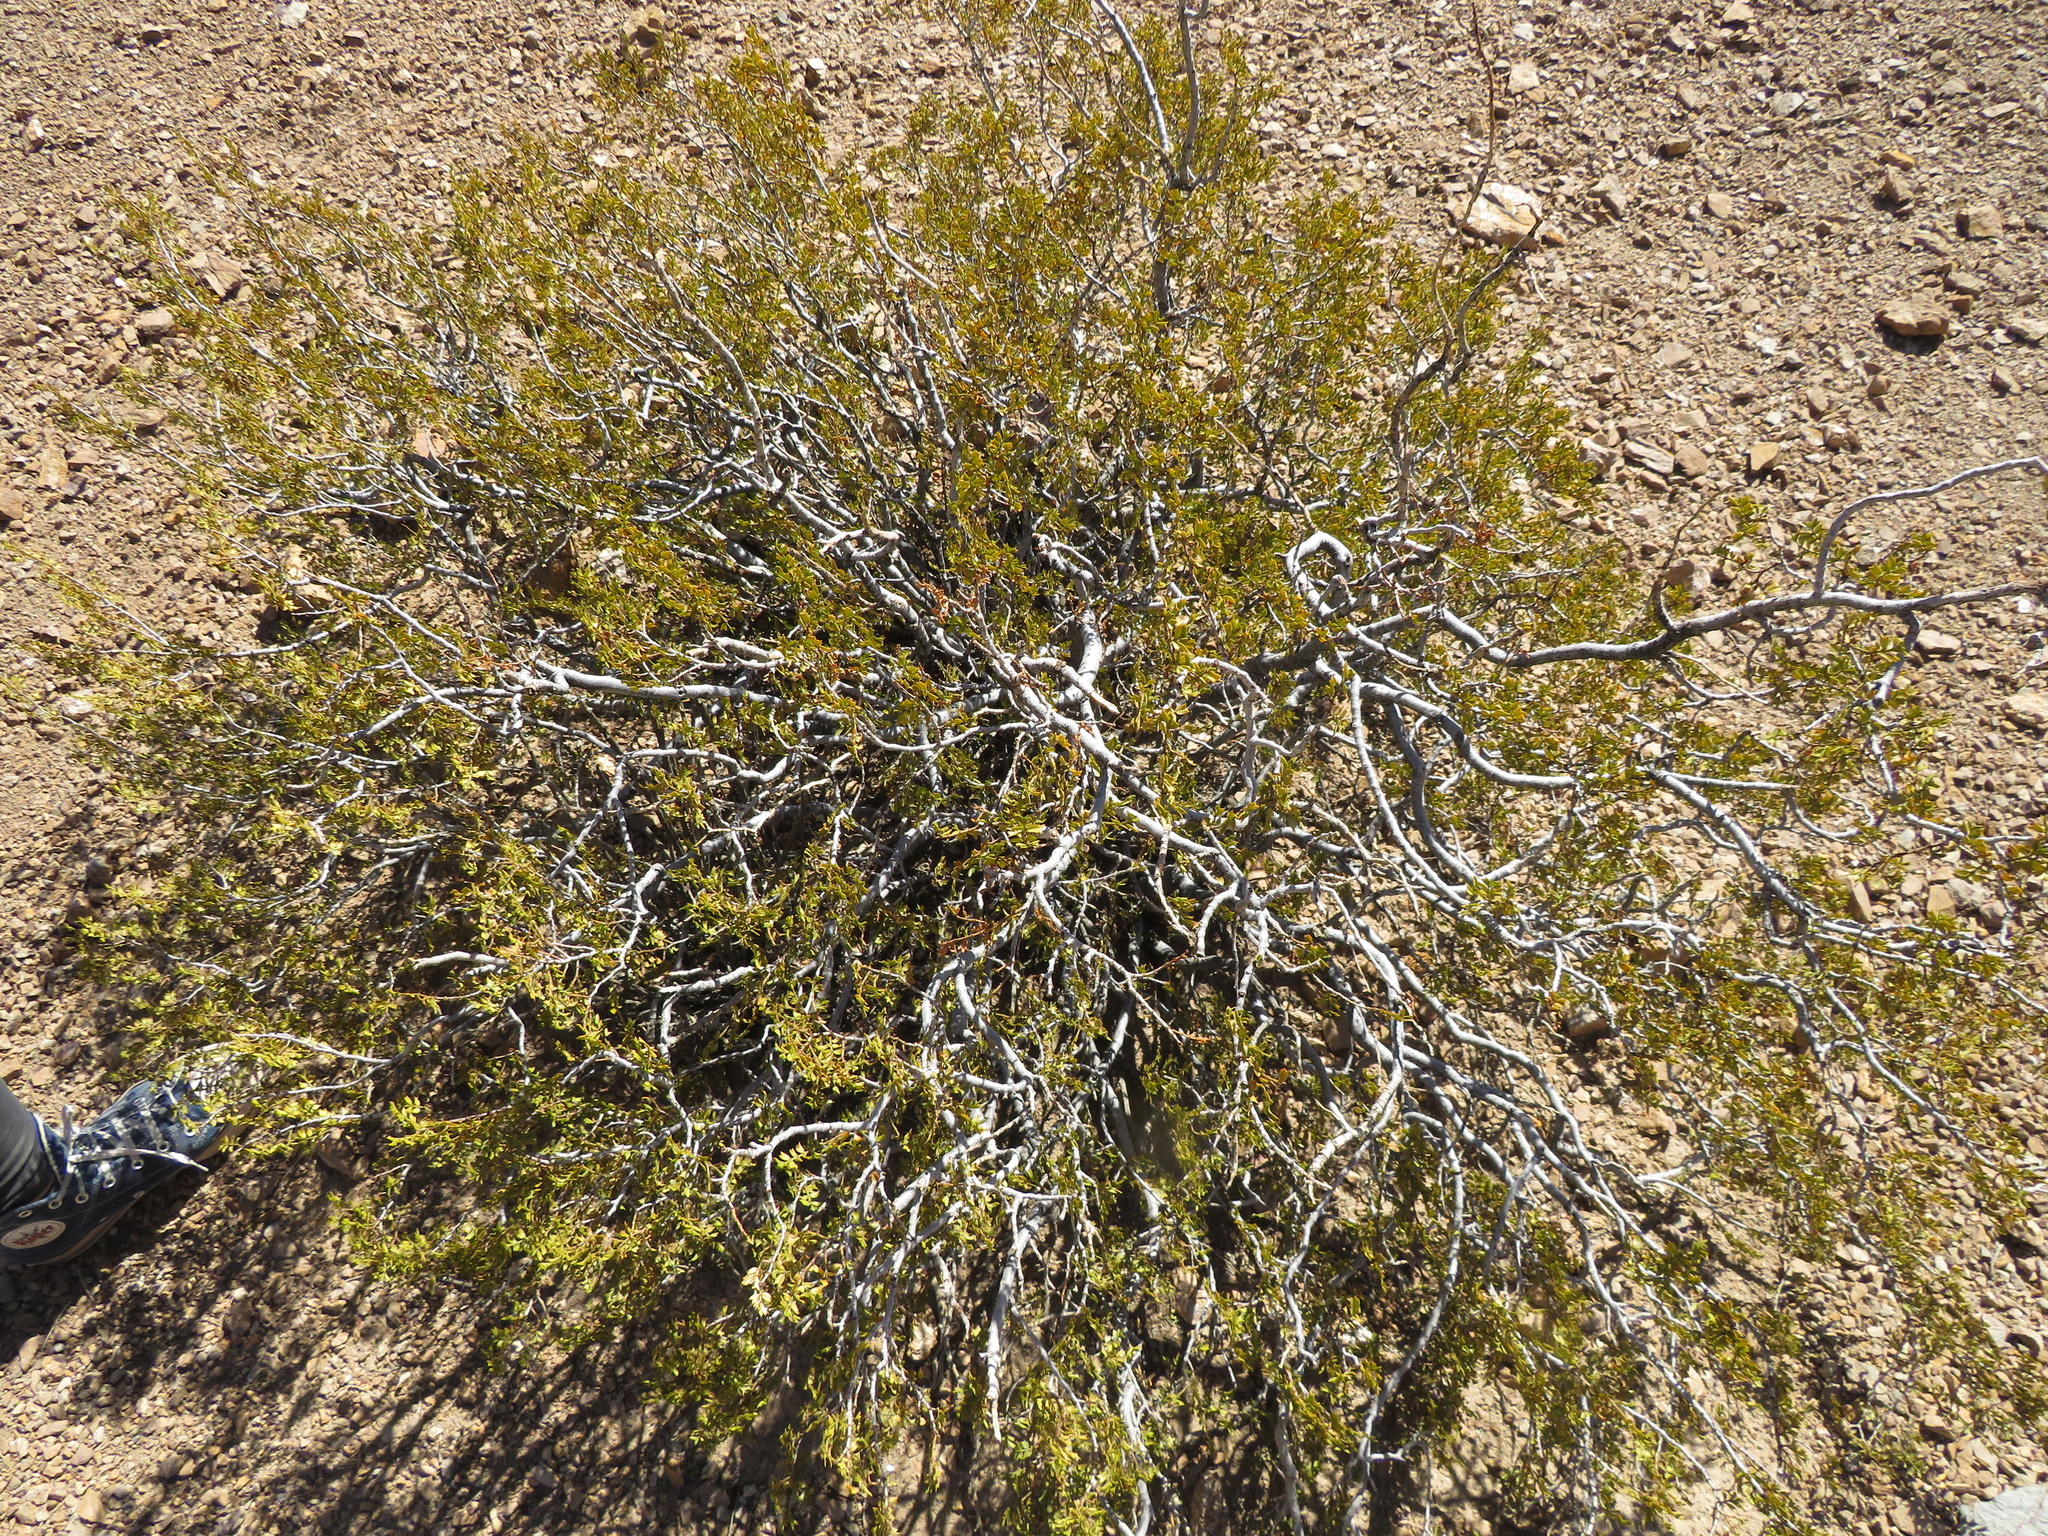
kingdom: Plantae
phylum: Tracheophyta
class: Magnoliopsida
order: Zygophyllales
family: Zygophyllaceae
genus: Larrea
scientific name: Larrea cuneifolia
